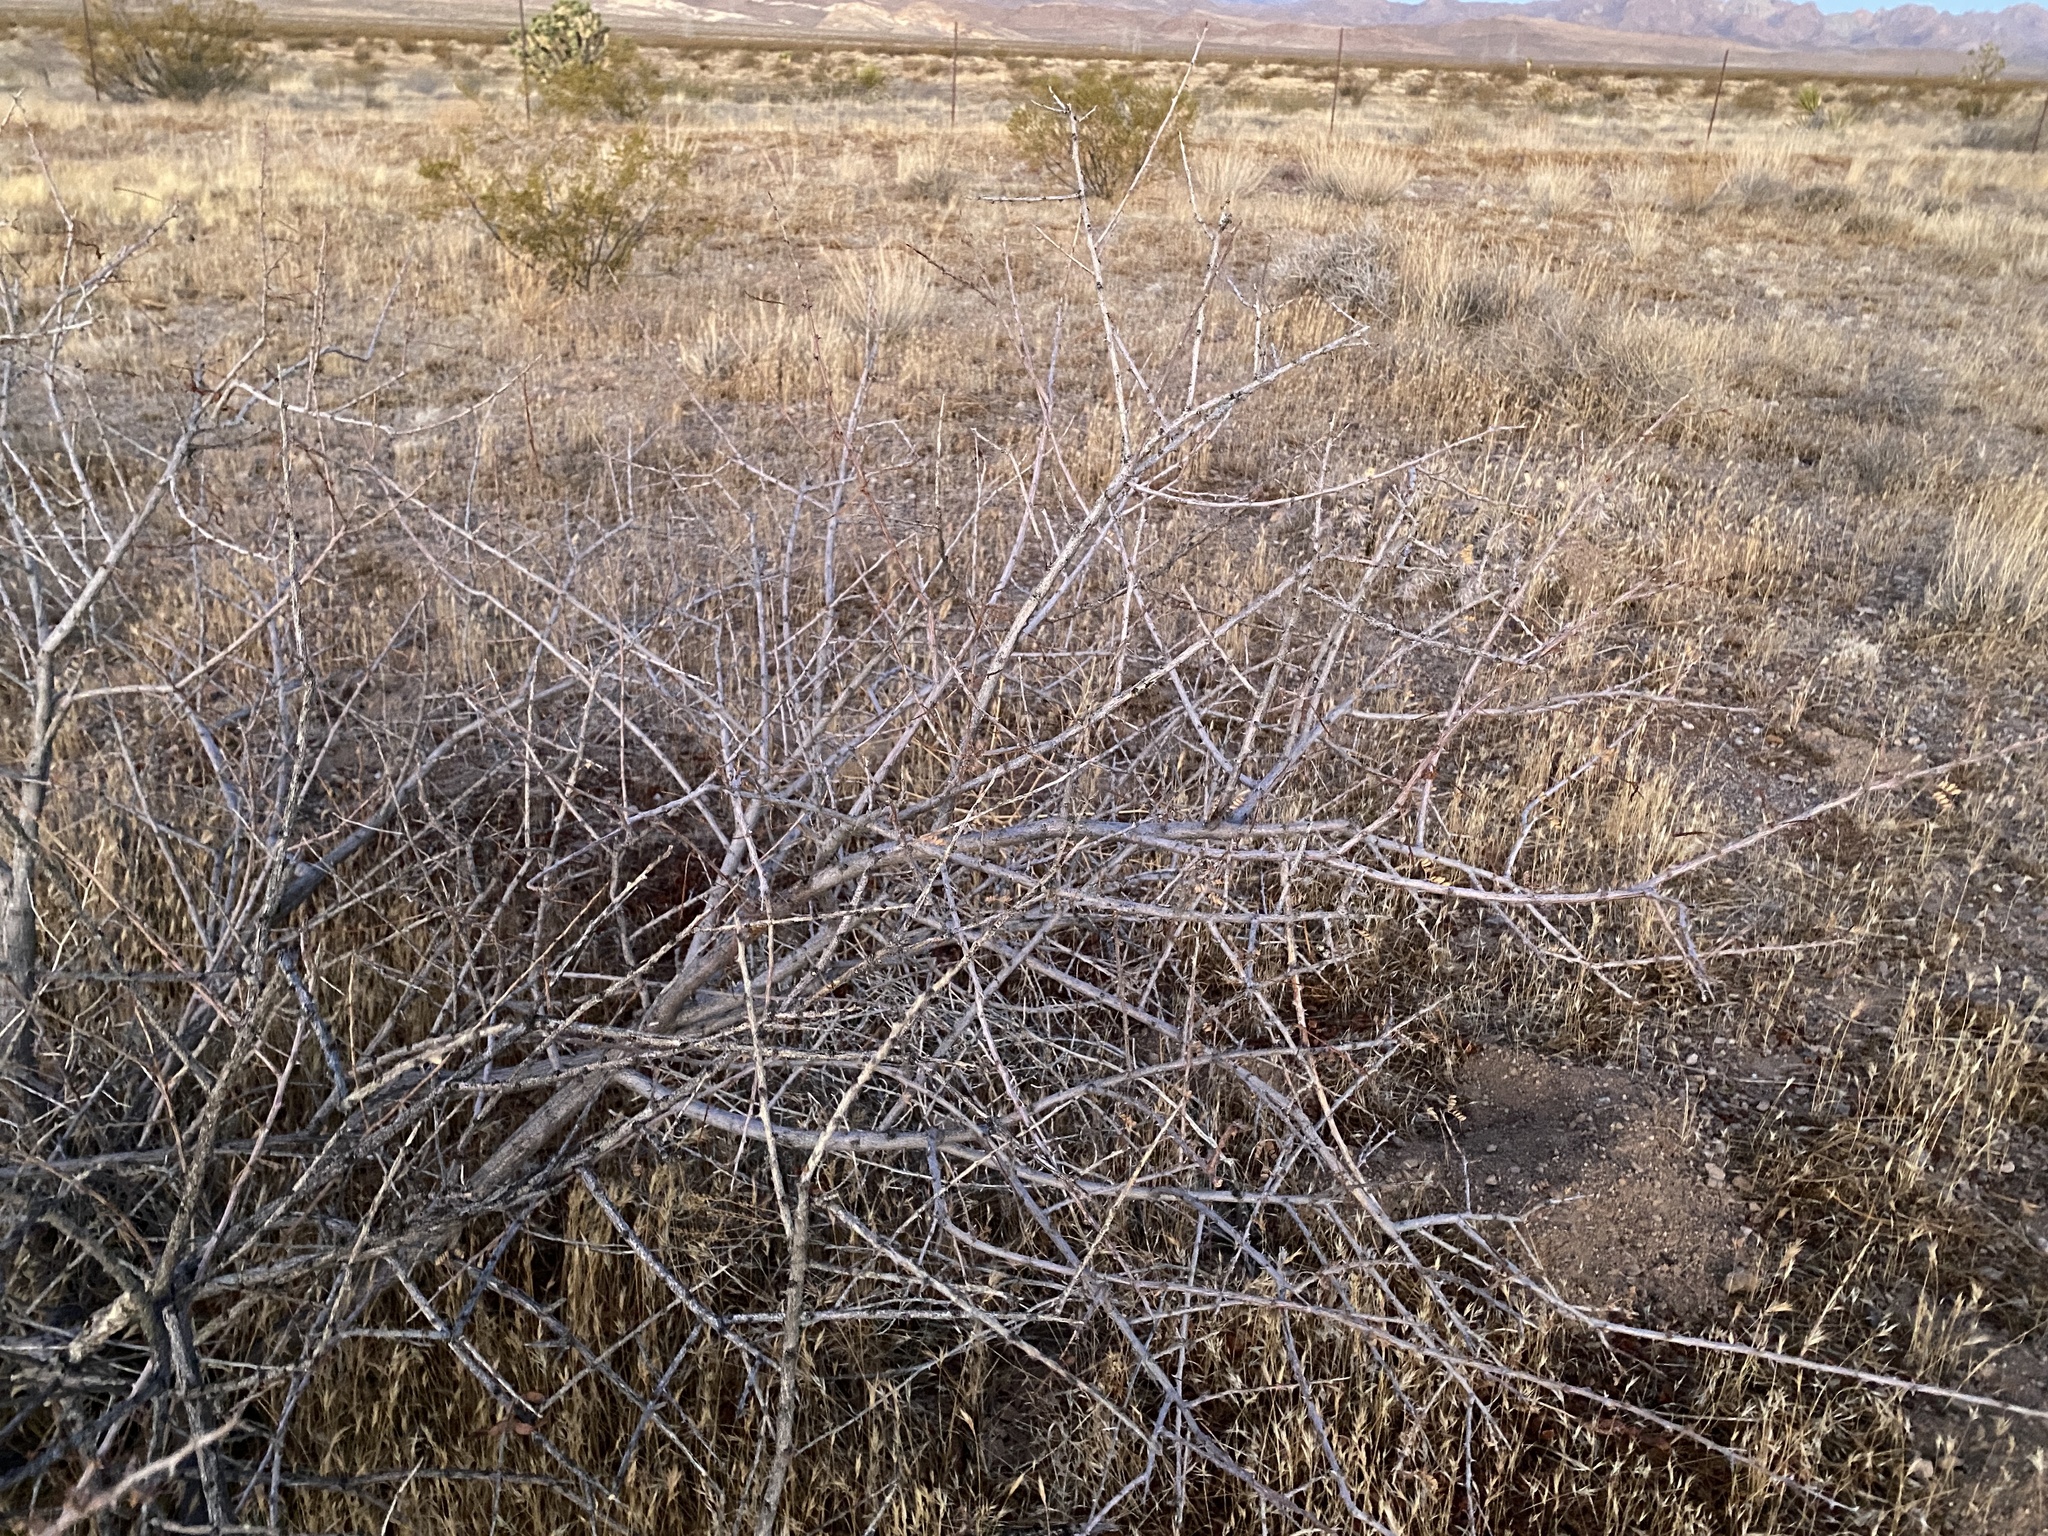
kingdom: Plantae
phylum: Tracheophyta
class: Magnoliopsida
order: Fabales
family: Fabaceae
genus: Senegalia
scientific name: Senegalia greggii
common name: Texas-mimosa
